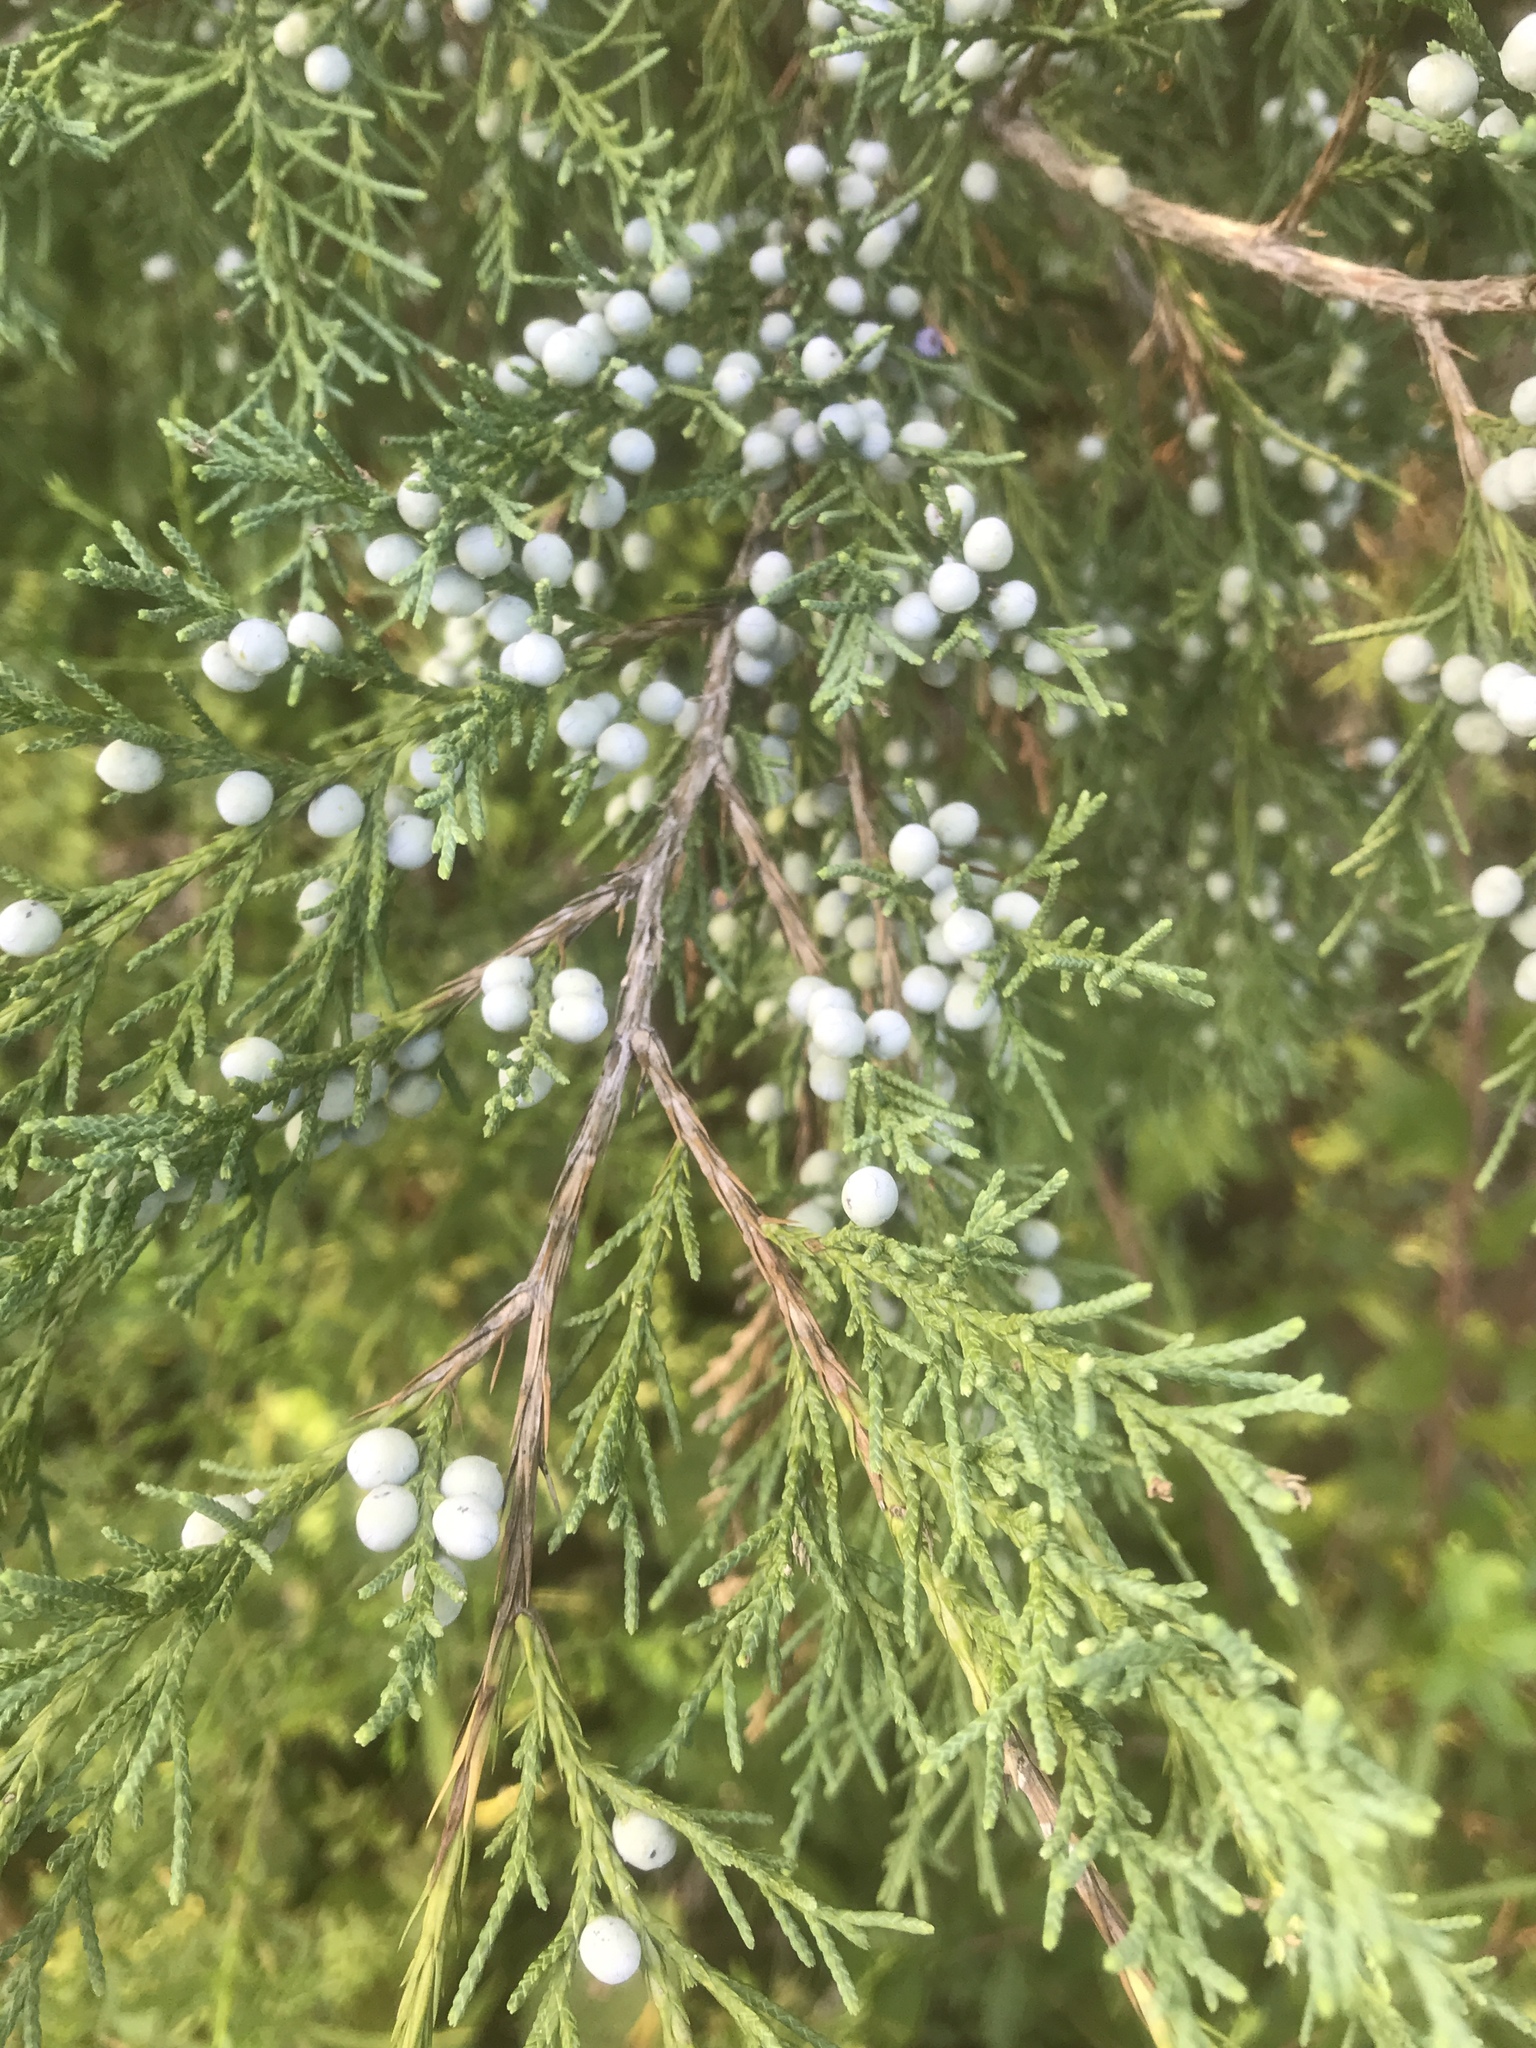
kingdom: Plantae
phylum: Tracheophyta
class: Pinopsida
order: Pinales
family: Cupressaceae
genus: Juniperus
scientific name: Juniperus virginiana
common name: Red juniper
